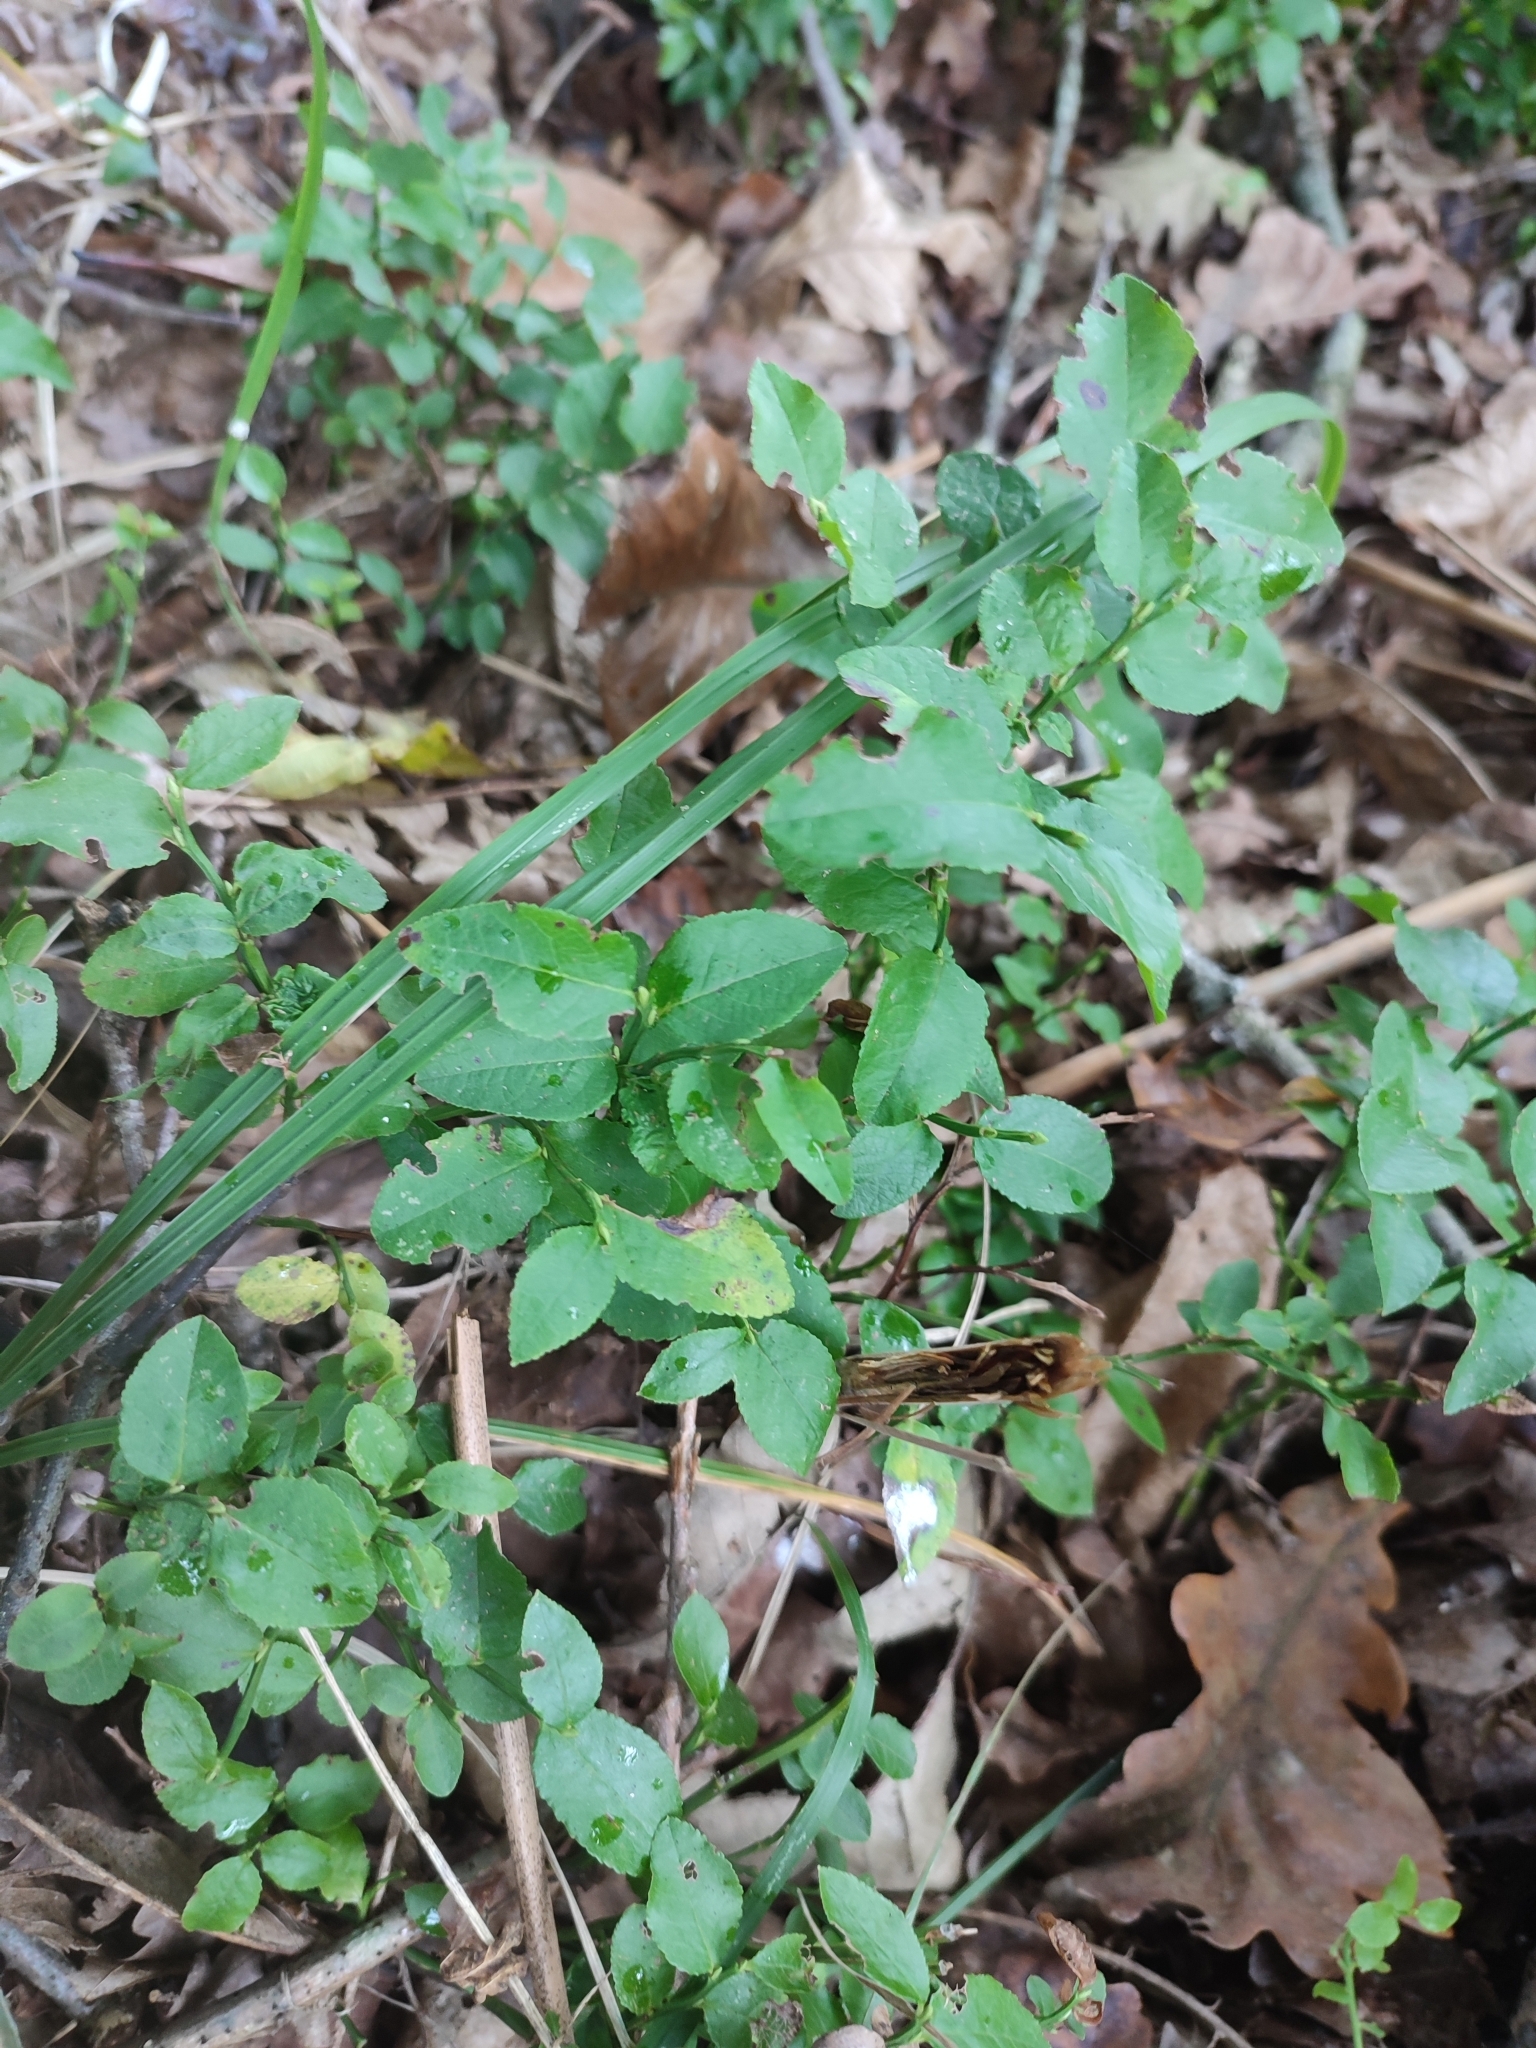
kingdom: Plantae
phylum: Tracheophyta
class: Magnoliopsida
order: Ericales
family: Ericaceae
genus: Vaccinium
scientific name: Vaccinium myrtillus
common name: Bilberry
